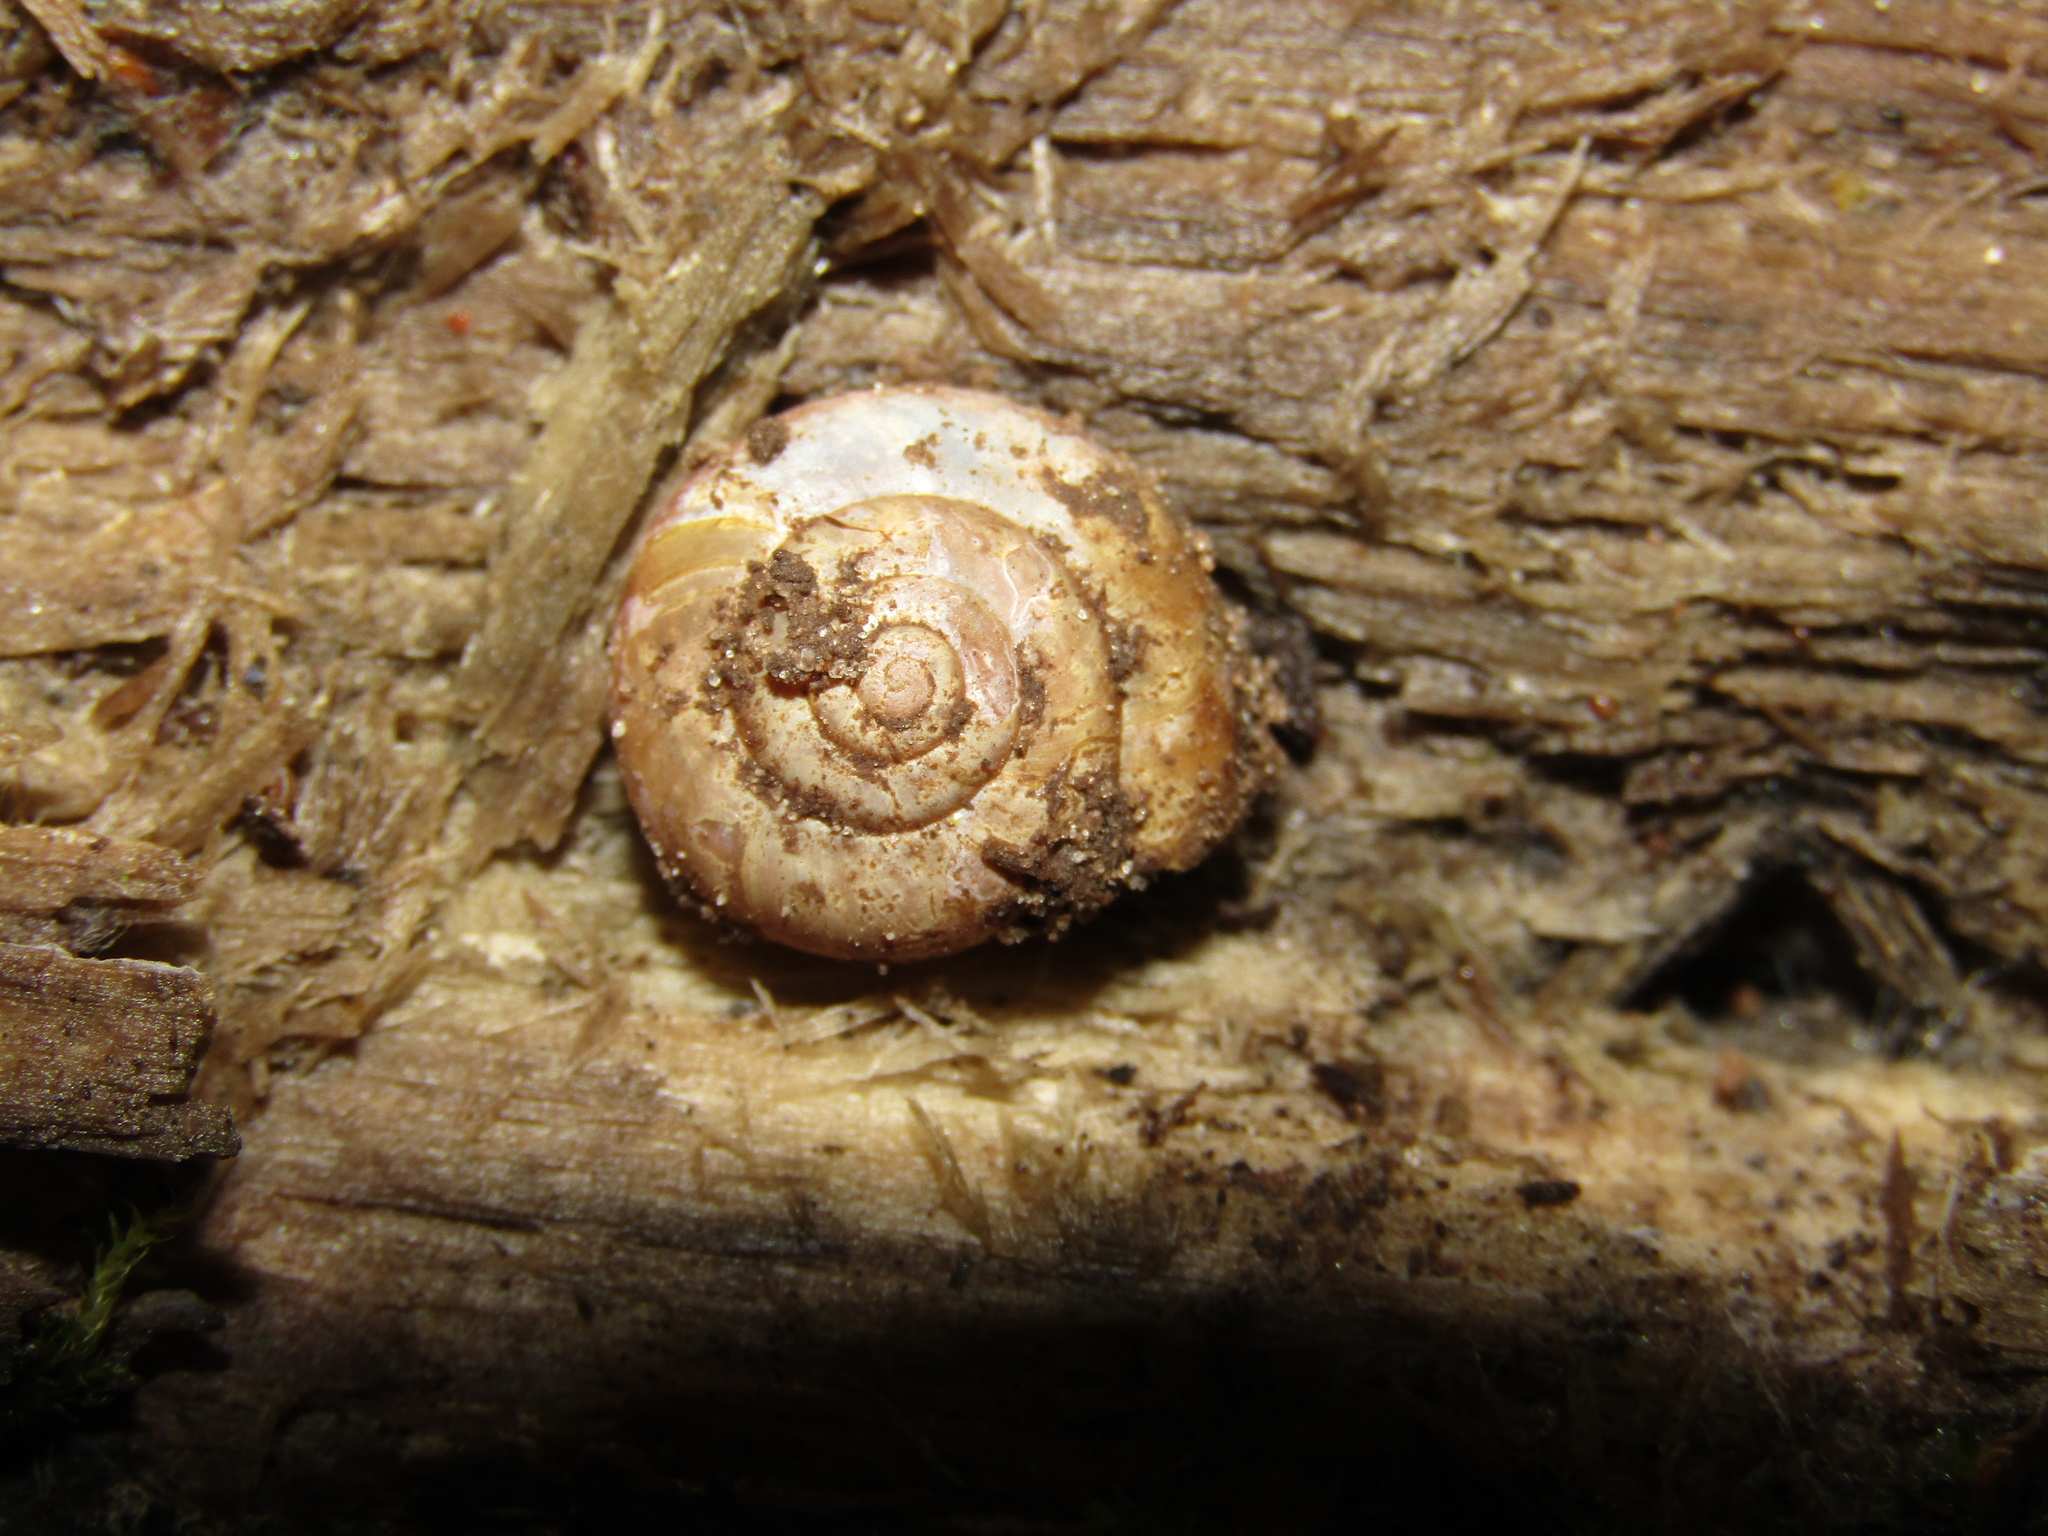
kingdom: Animalia
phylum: Mollusca
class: Gastropoda
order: Stylommatophora
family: Camaenidae
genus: Fruticicola
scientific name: Fruticicola fruticum
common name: Bush snail
